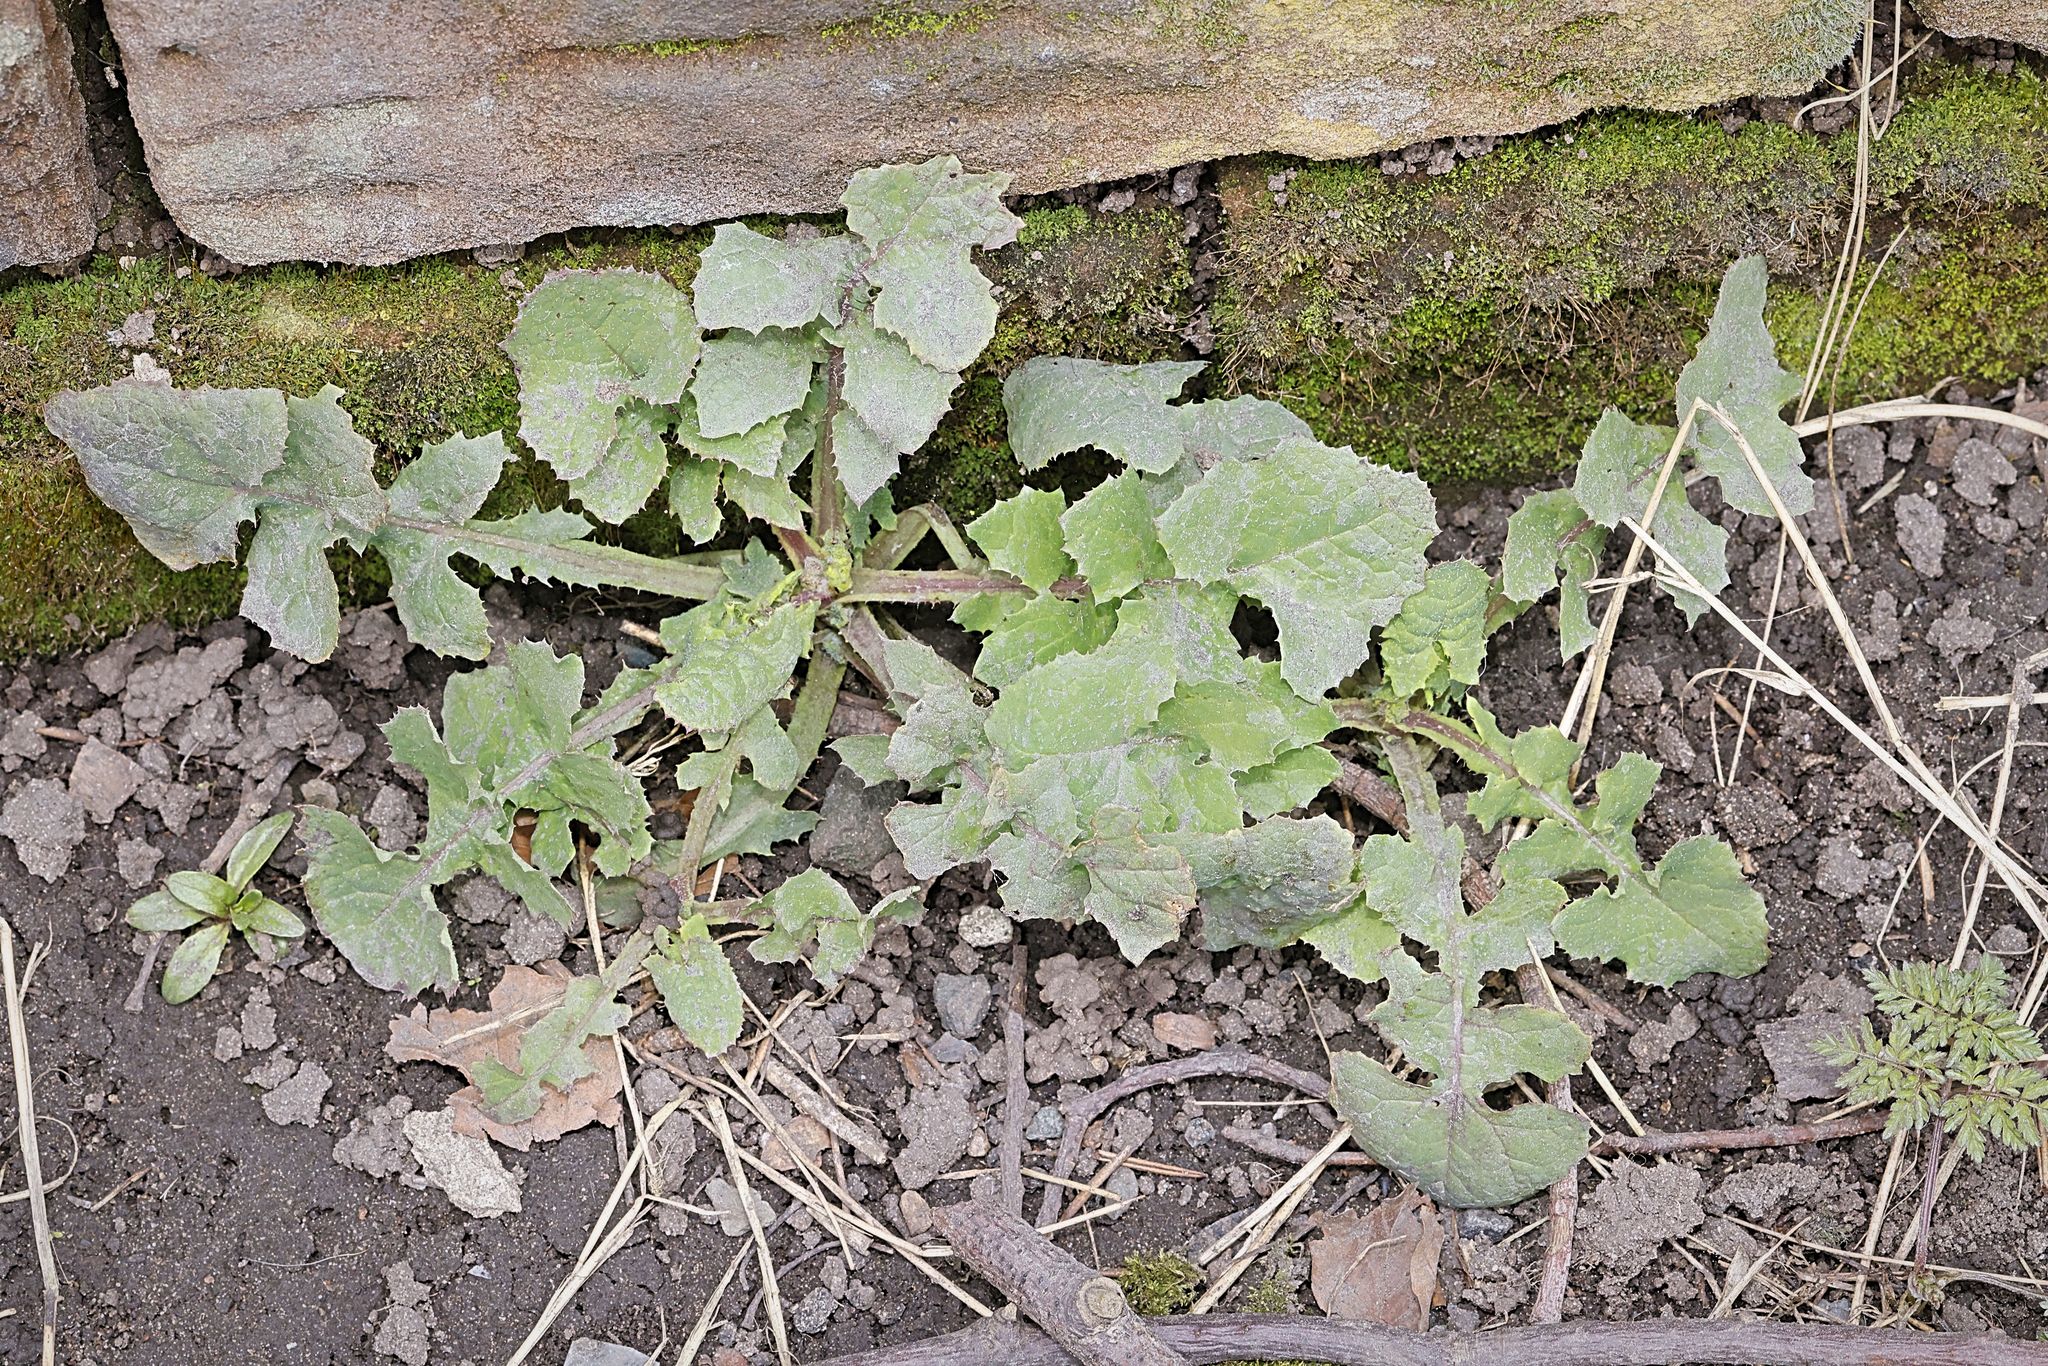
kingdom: Plantae
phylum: Tracheophyta
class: Magnoliopsida
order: Asterales
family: Asteraceae
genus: Sonchus
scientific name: Sonchus oleraceus
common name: Common sowthistle
